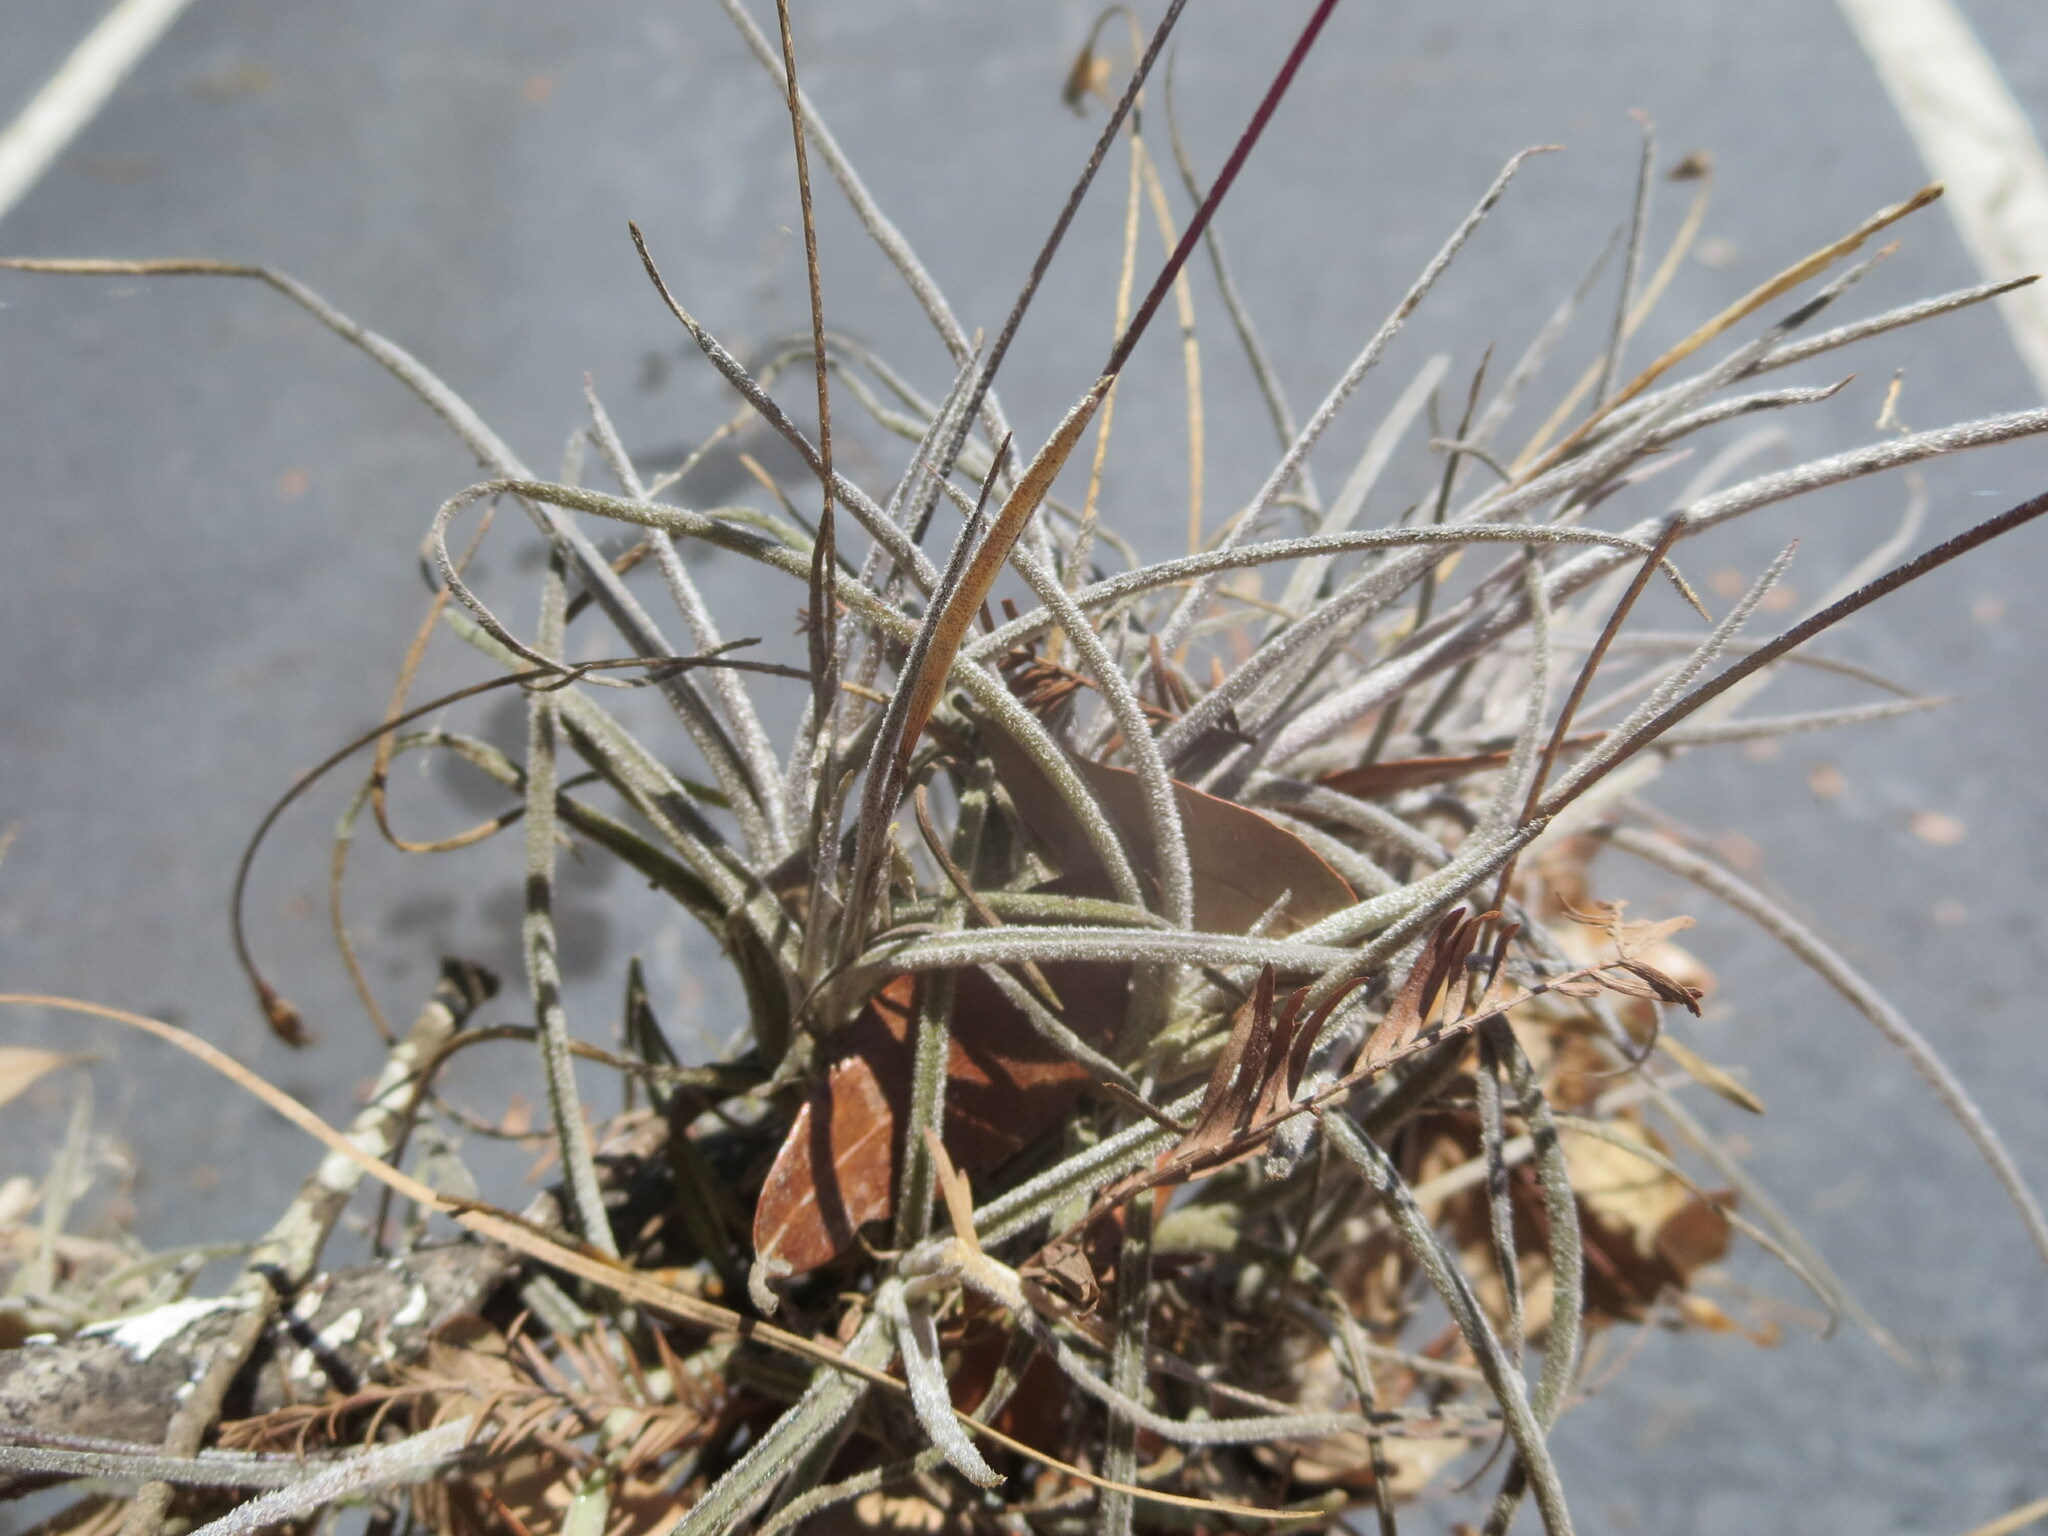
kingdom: Plantae
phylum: Tracheophyta
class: Liliopsida
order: Poales
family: Bromeliaceae
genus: Tillandsia
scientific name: Tillandsia recurvata
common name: Small ballmoss
